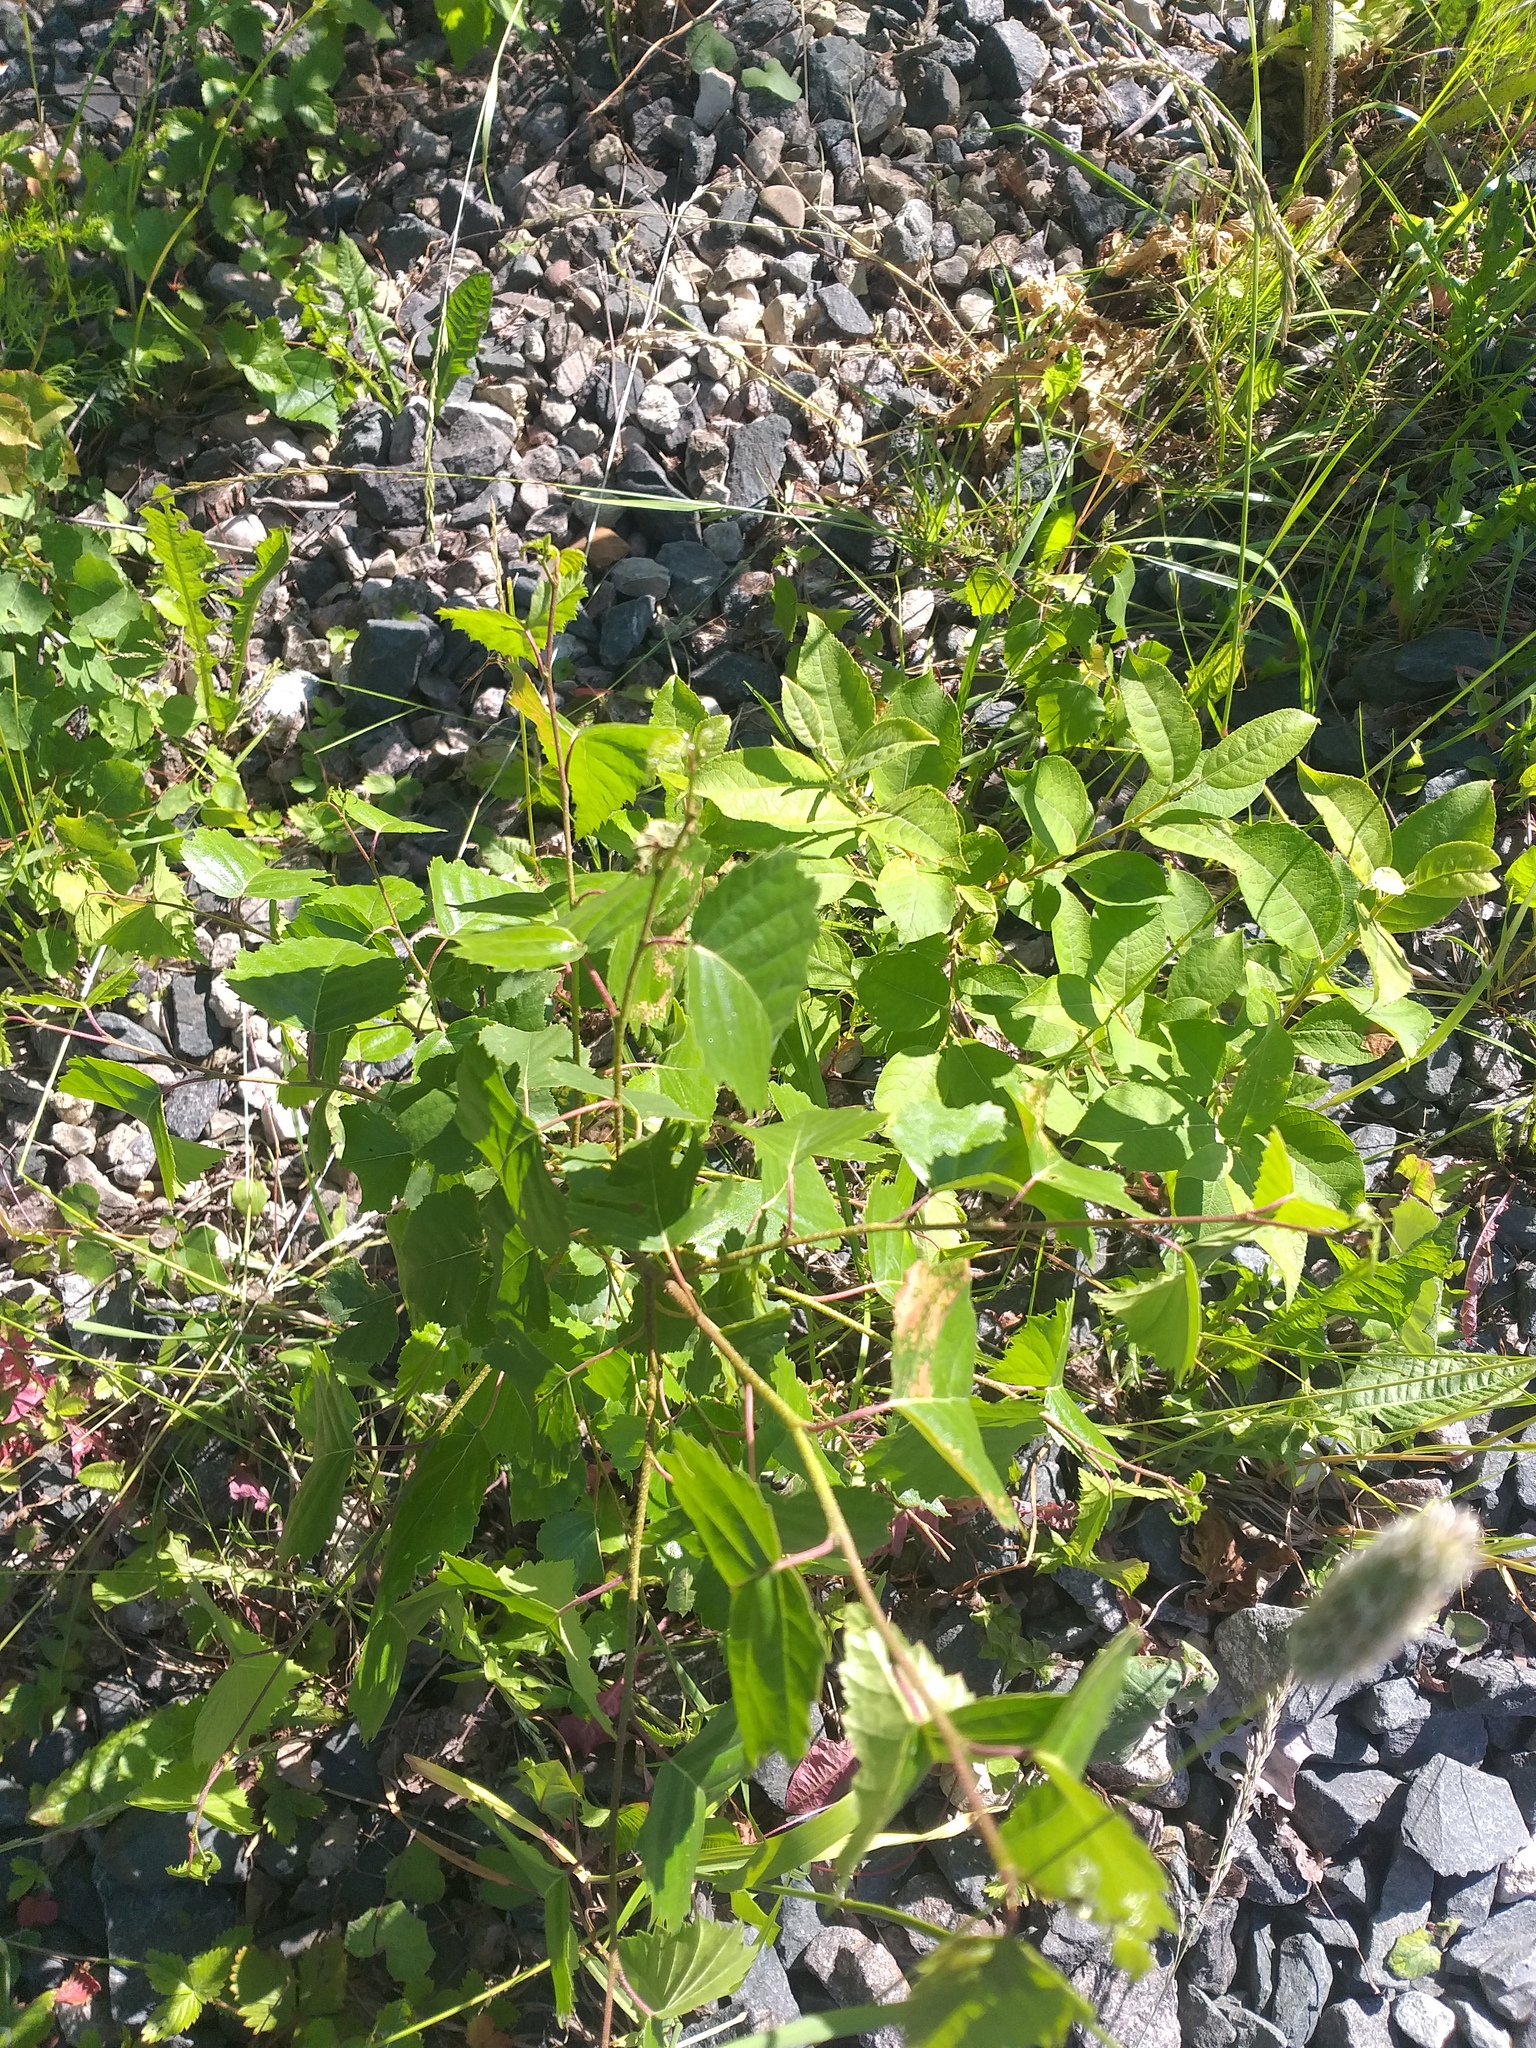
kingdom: Plantae
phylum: Tracheophyta
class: Magnoliopsida
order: Fagales
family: Betulaceae
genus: Betula
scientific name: Betula pendula
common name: Silver birch
